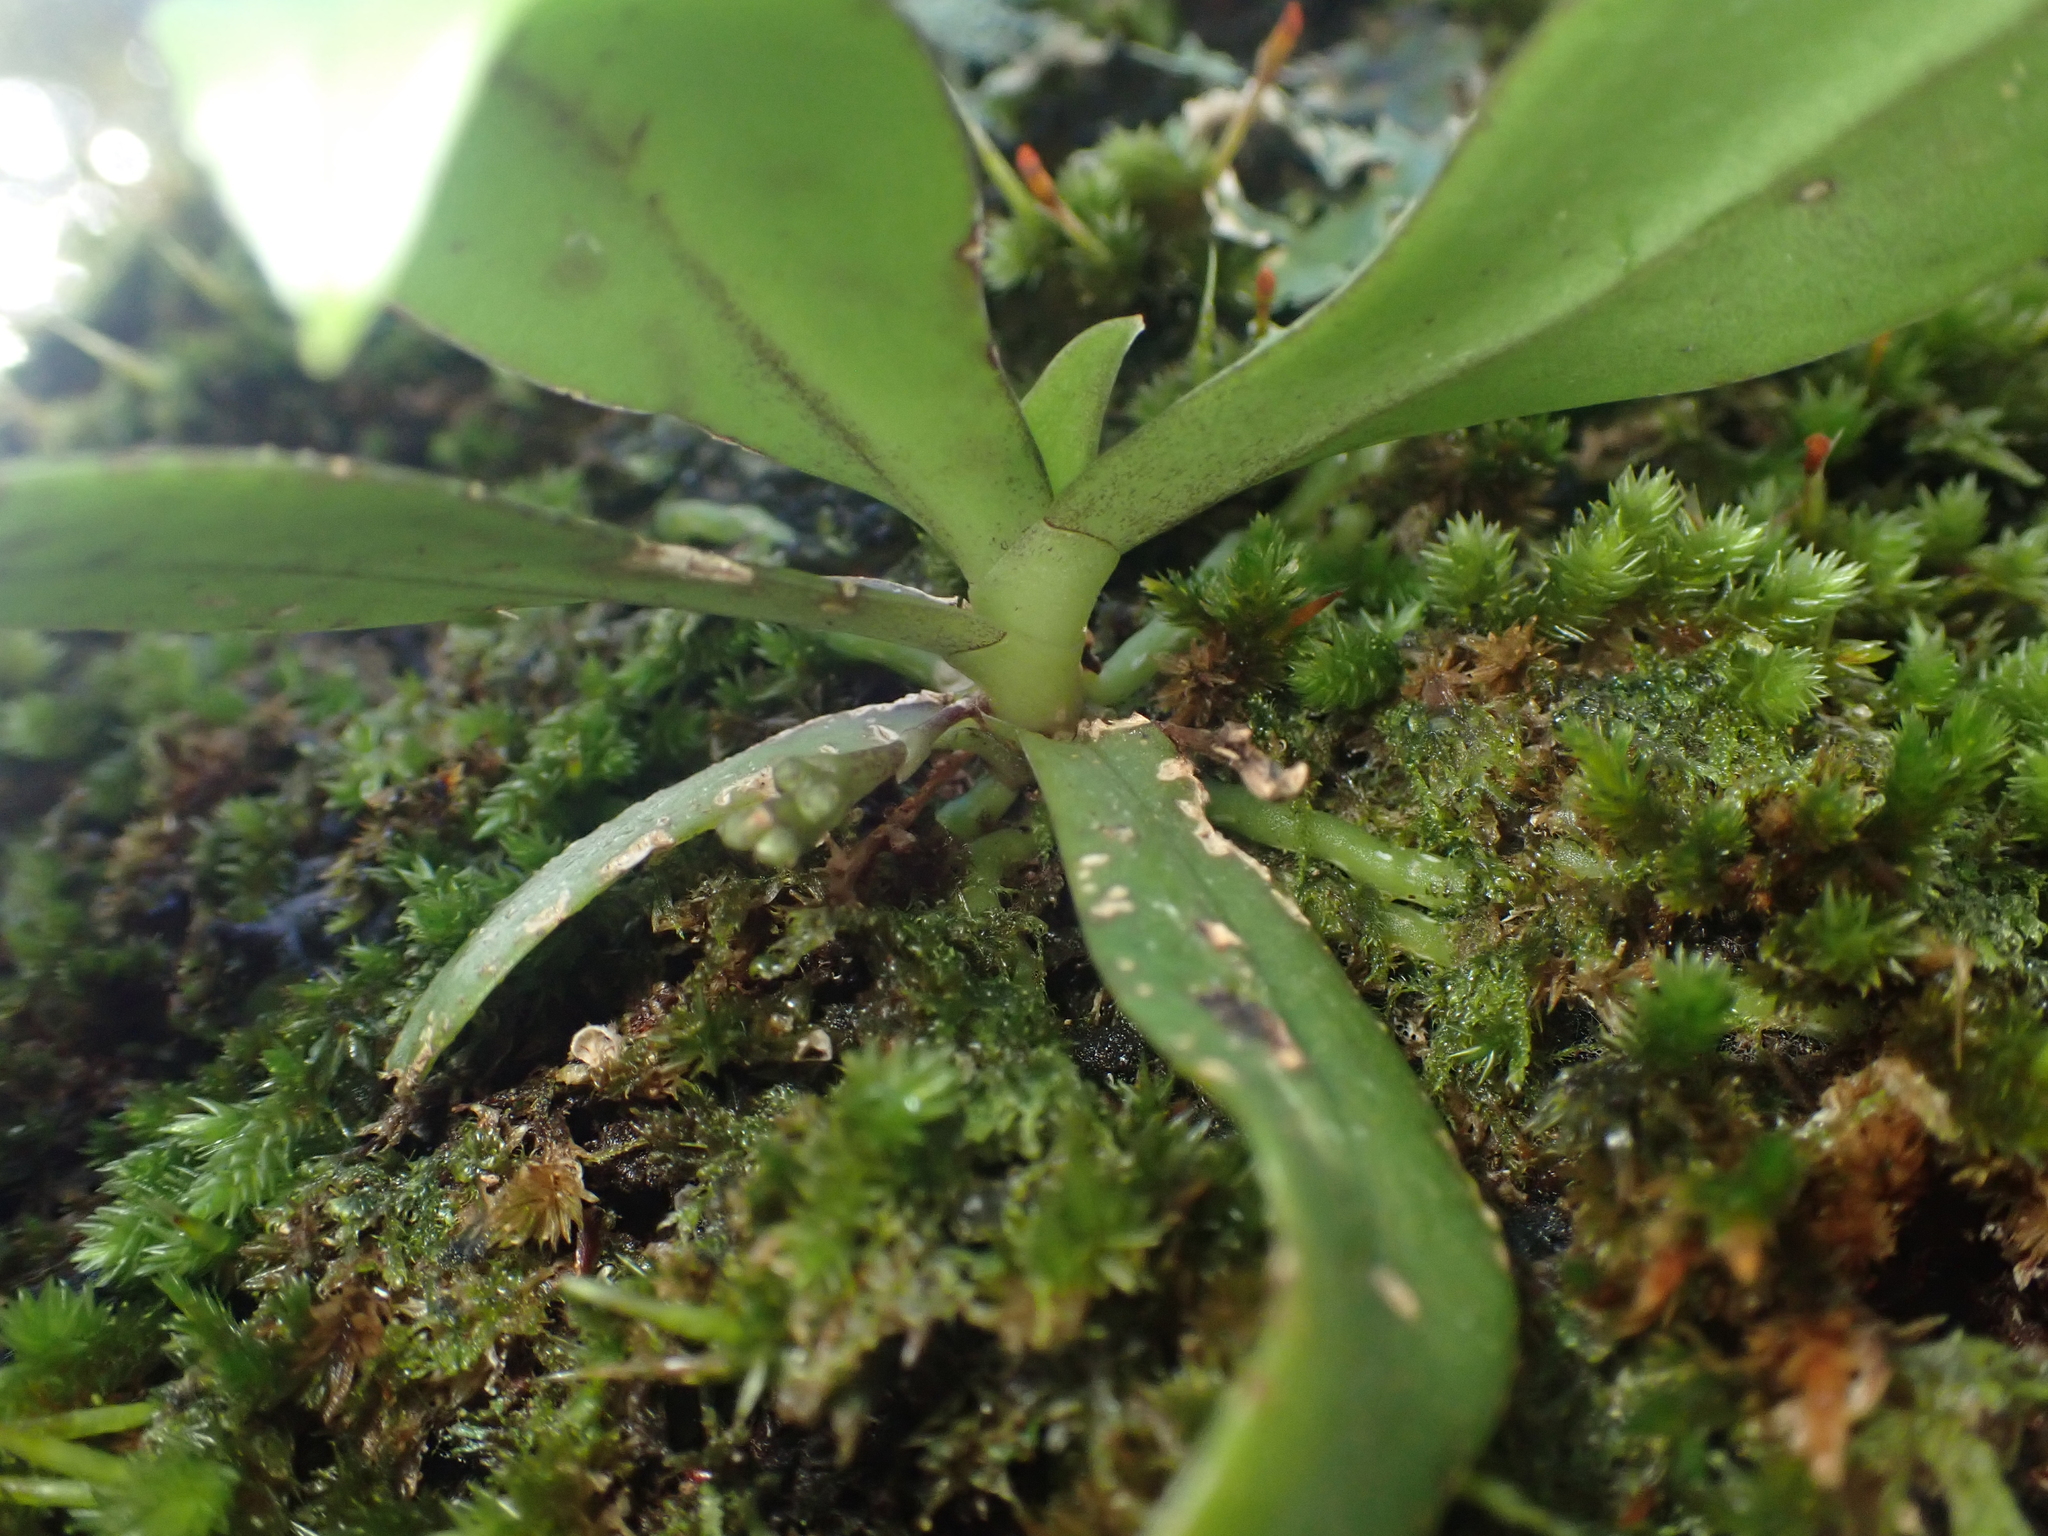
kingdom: Plantae
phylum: Tracheophyta
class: Liliopsida
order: Asparagales
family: Orchidaceae
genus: Drymoanthus
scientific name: Drymoanthus adversus
